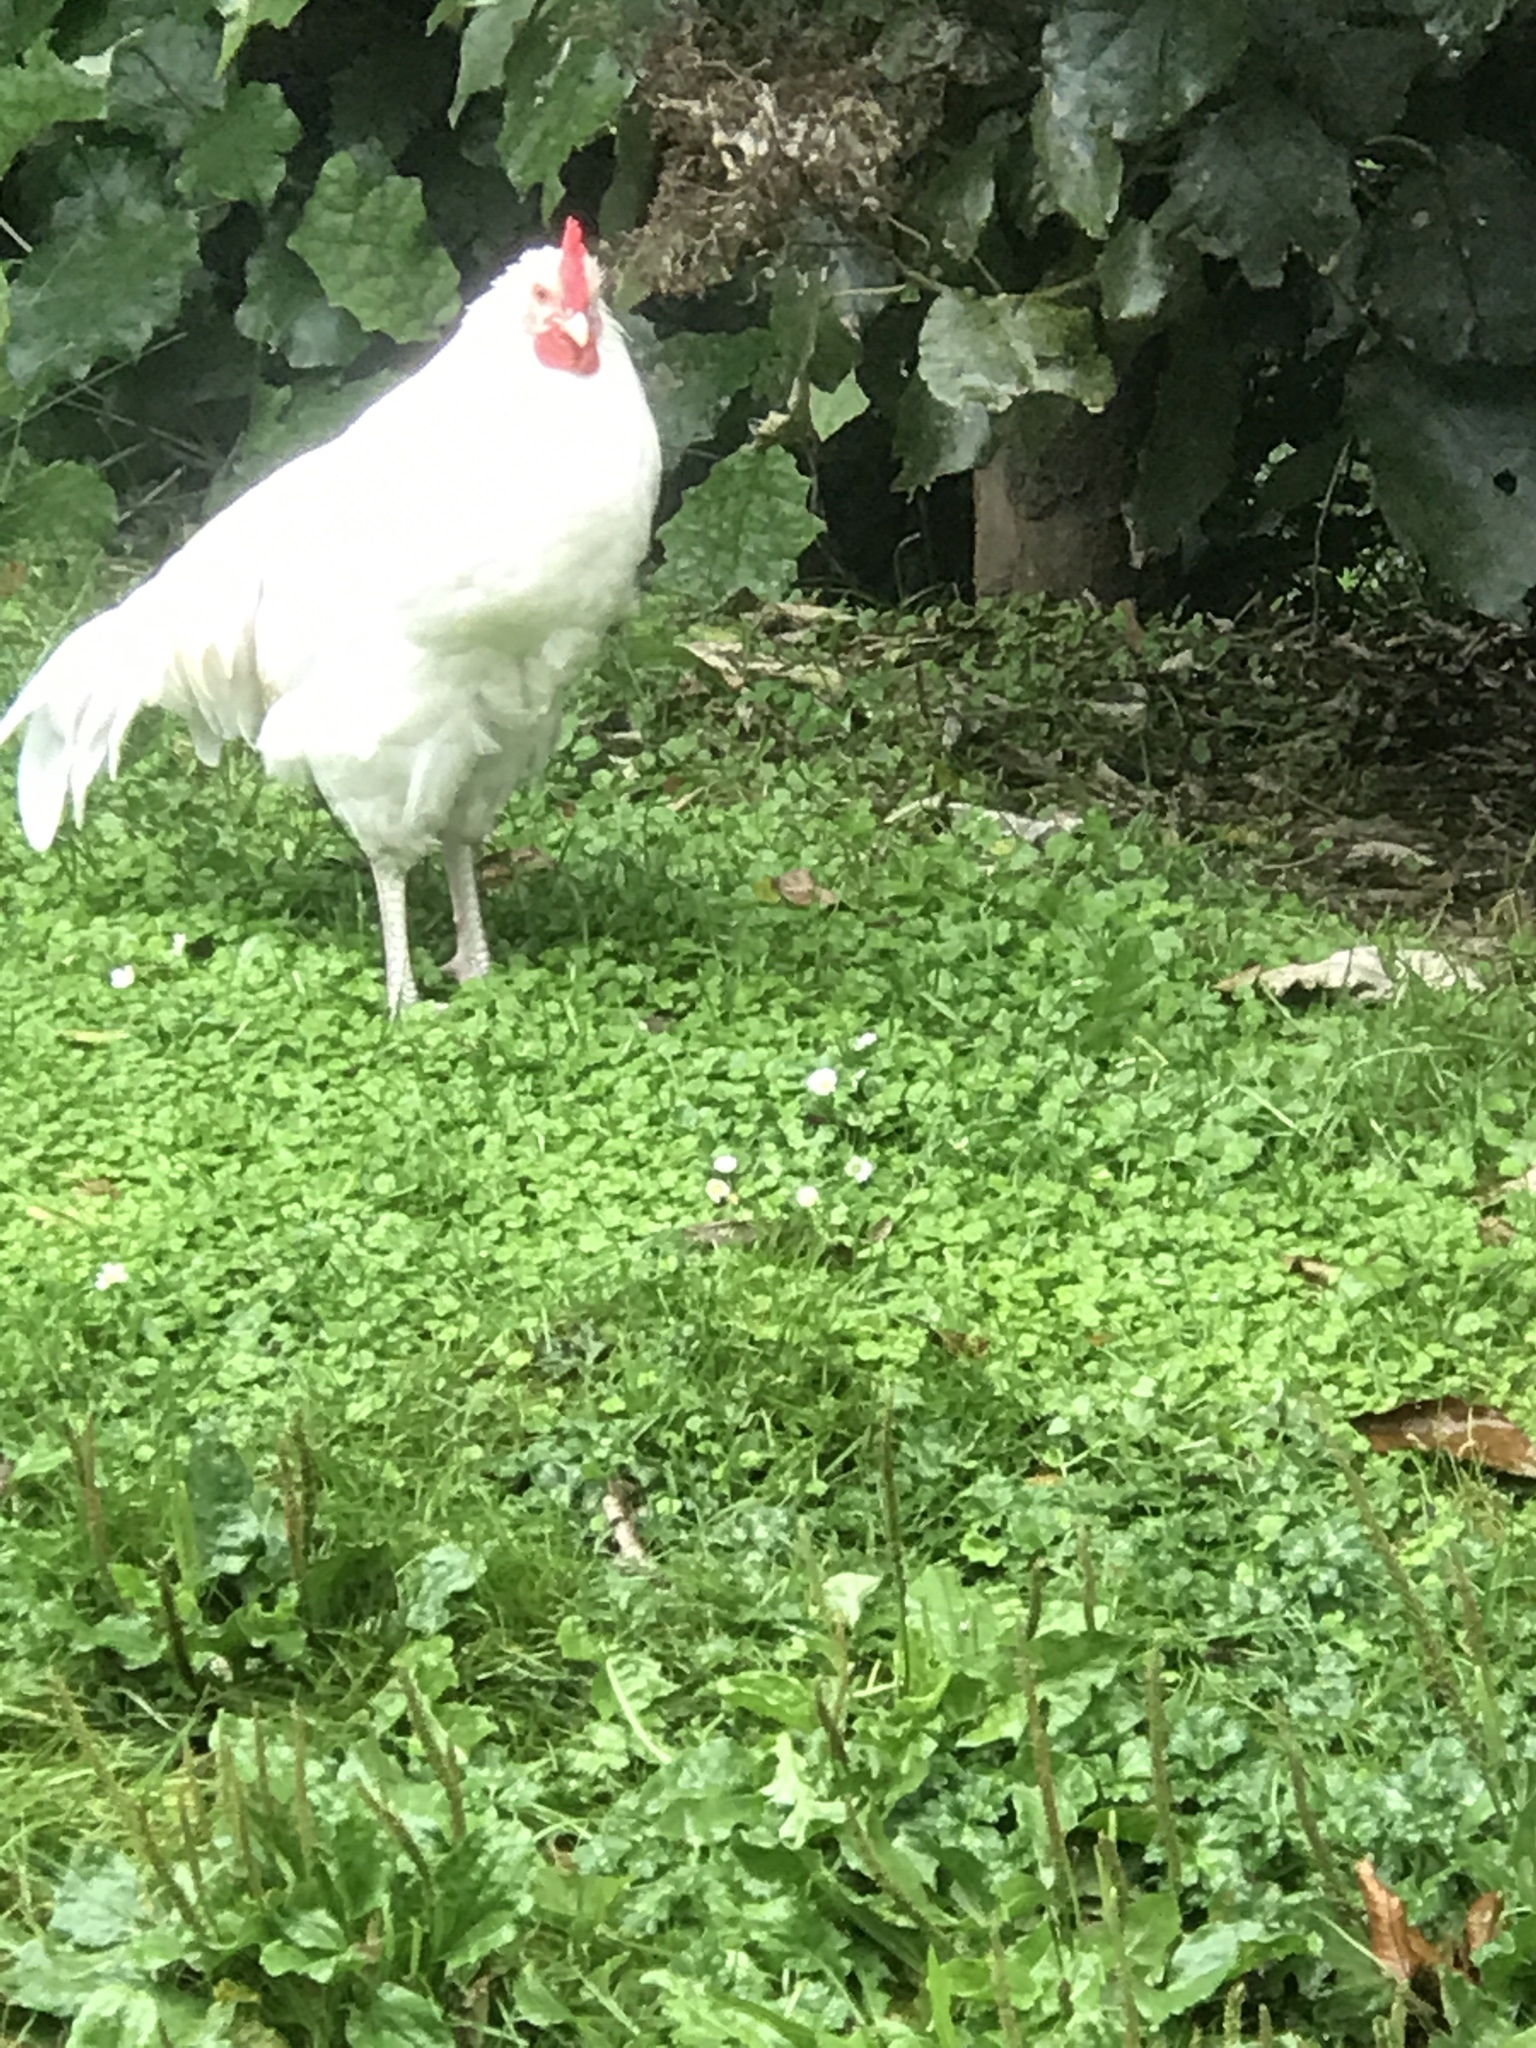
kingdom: Animalia
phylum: Chordata
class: Aves
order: Galliformes
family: Phasianidae
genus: Gallus
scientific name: Gallus gallus
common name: Red junglefowl
